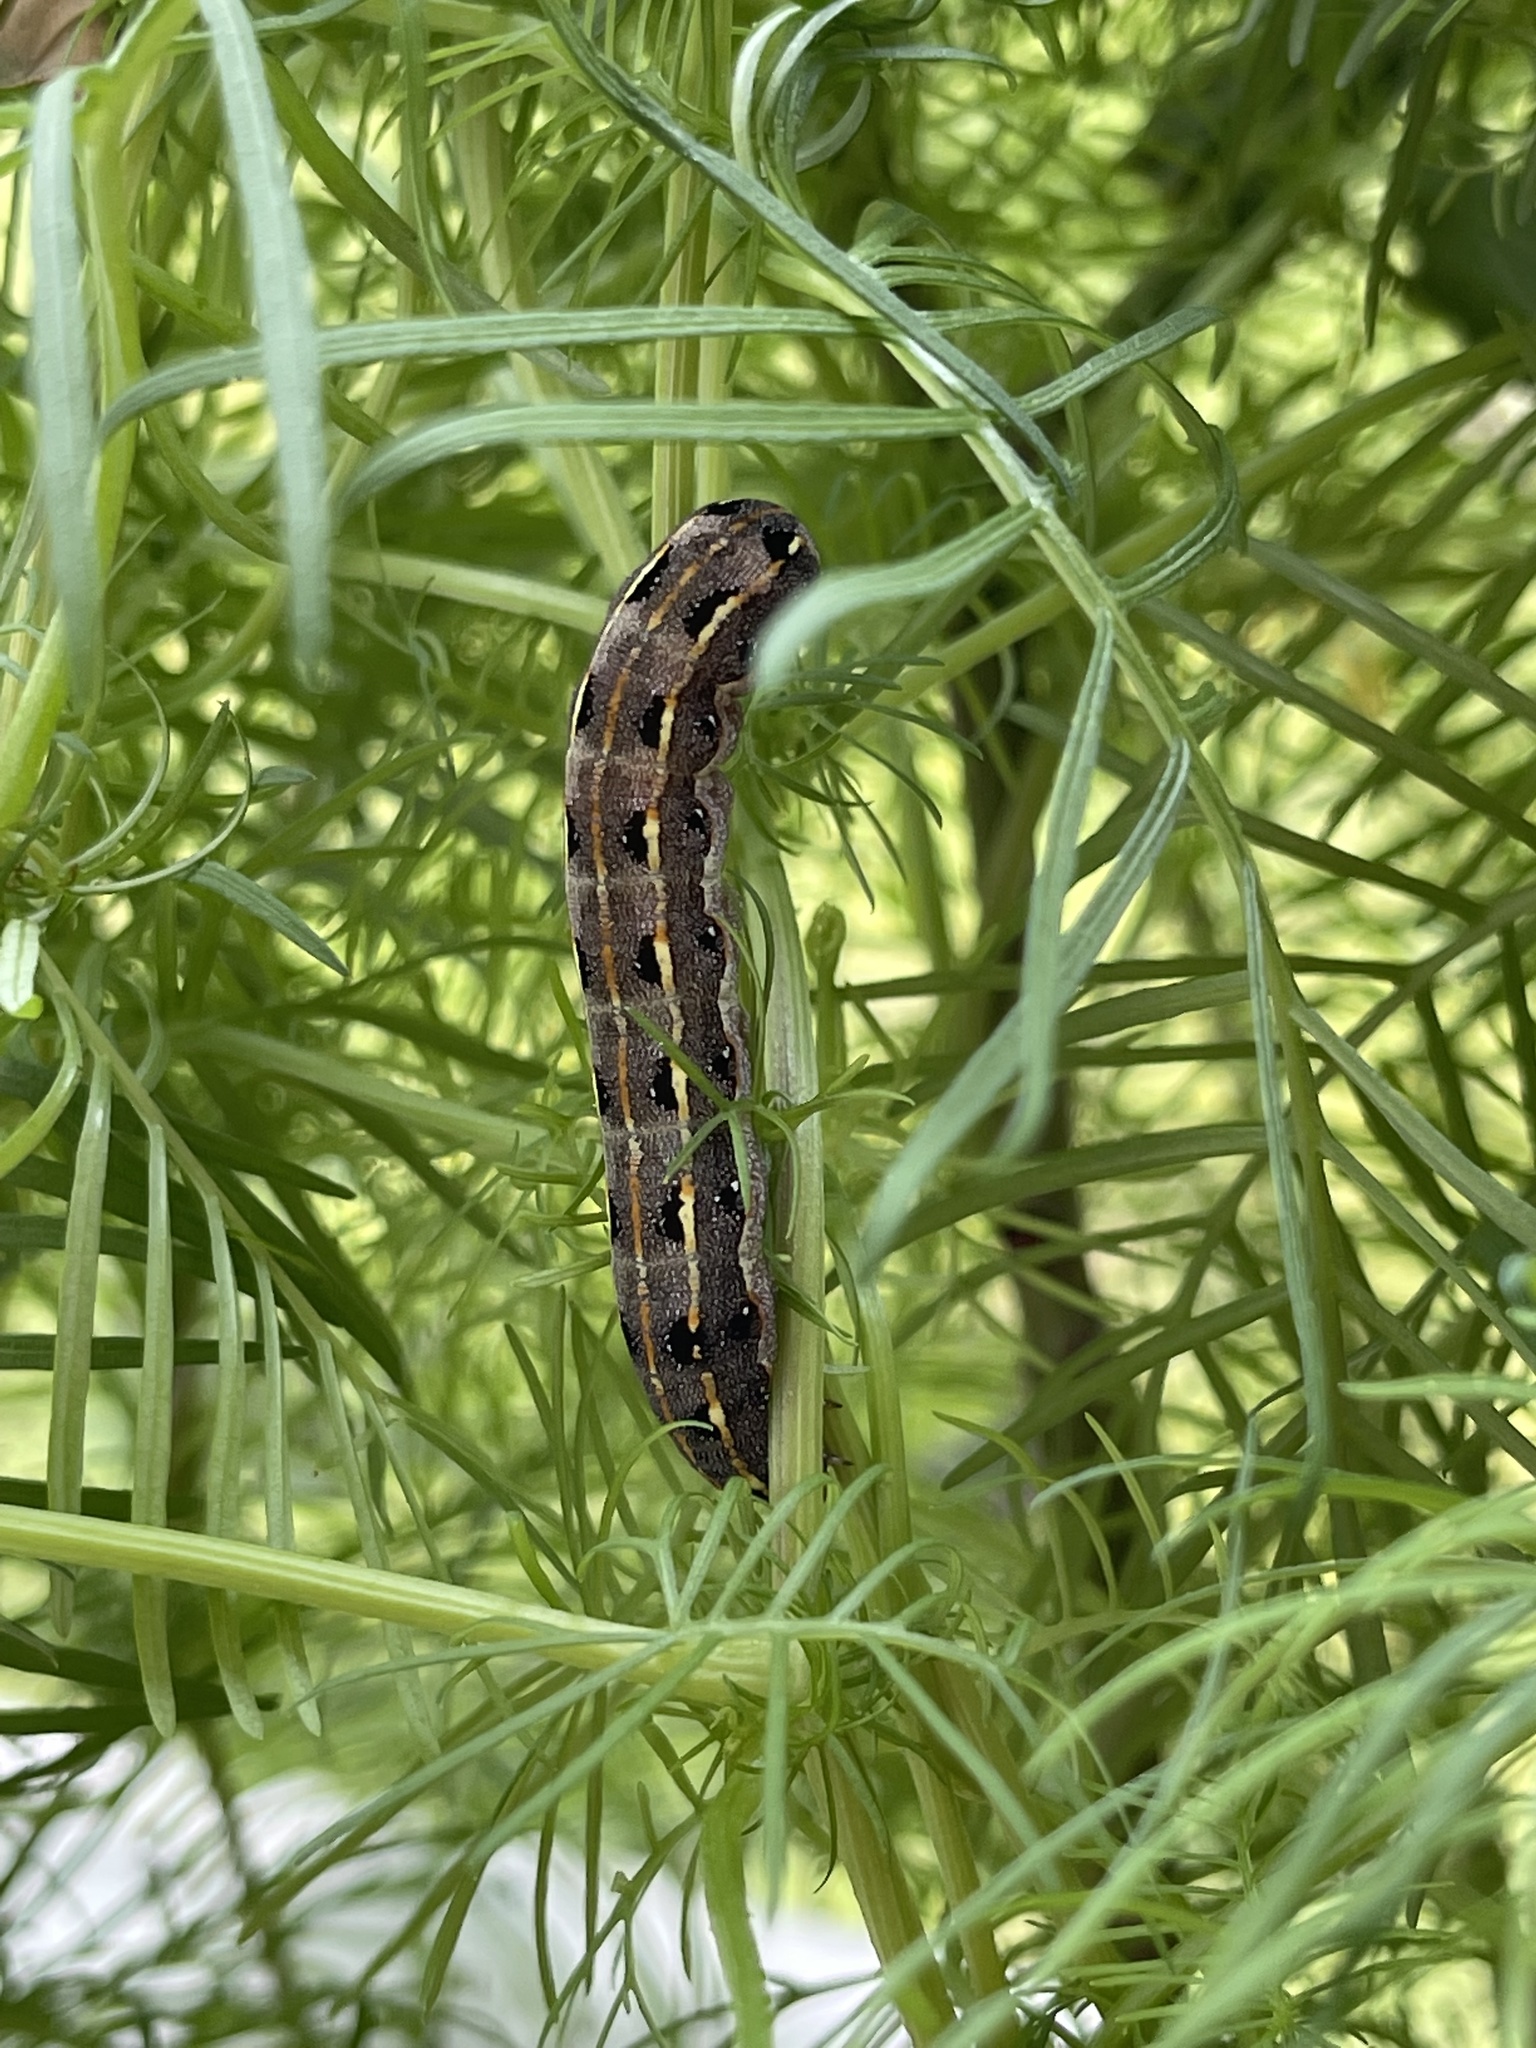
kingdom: Animalia
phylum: Arthropoda
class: Insecta
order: Lepidoptera
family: Noctuidae
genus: Spodoptera
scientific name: Spodoptera litura
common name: Asian cotton leafworm
